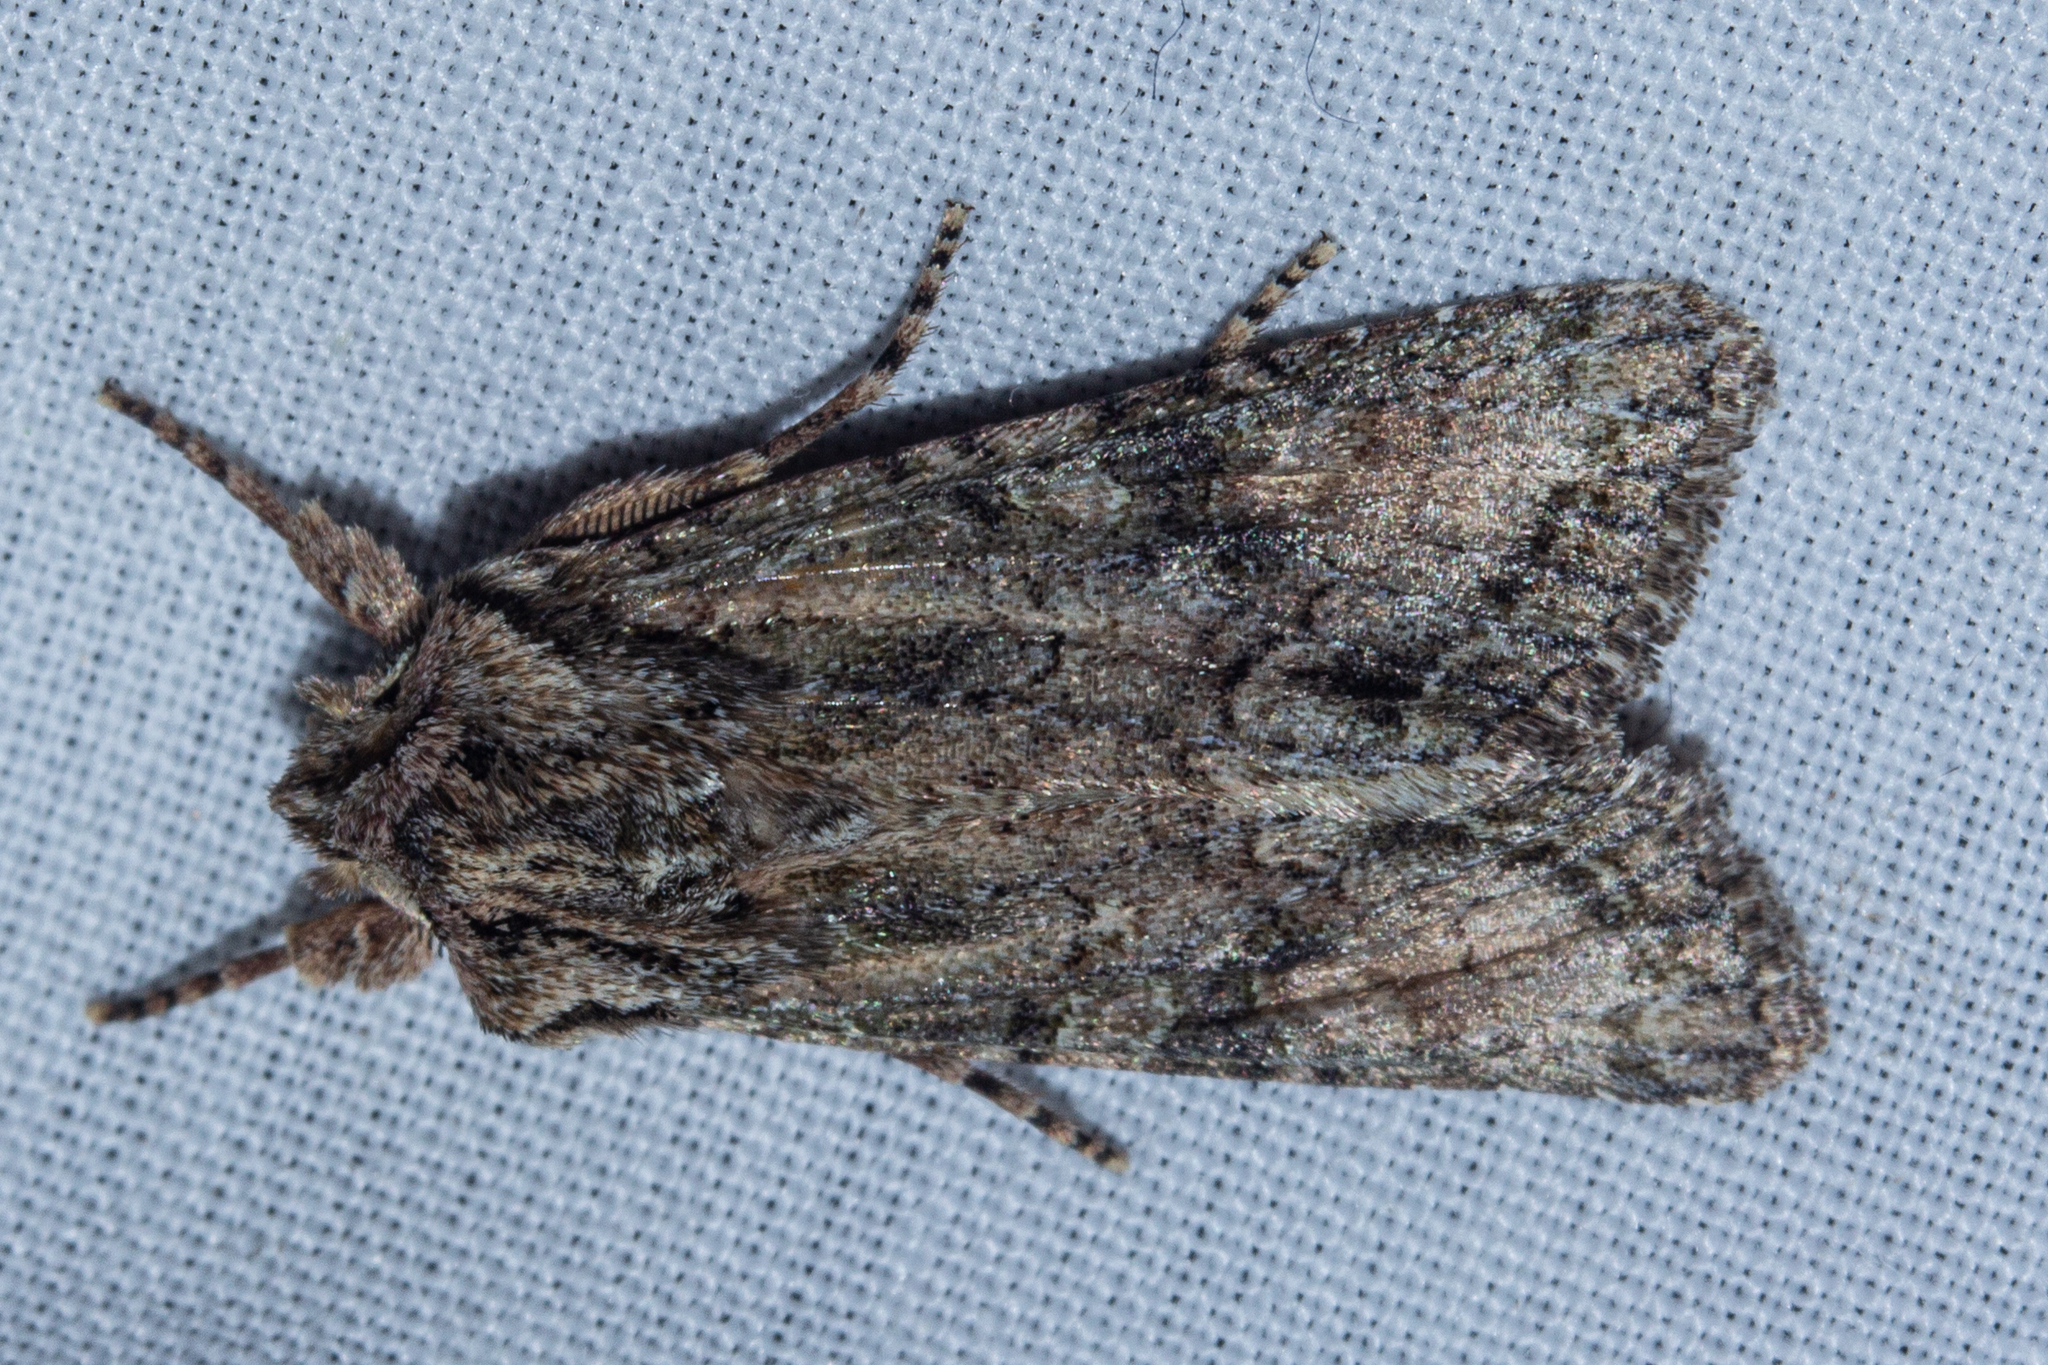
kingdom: Animalia
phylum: Arthropoda
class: Insecta
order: Lepidoptera
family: Noctuidae
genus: Ichneutica
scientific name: Ichneutica mutans
